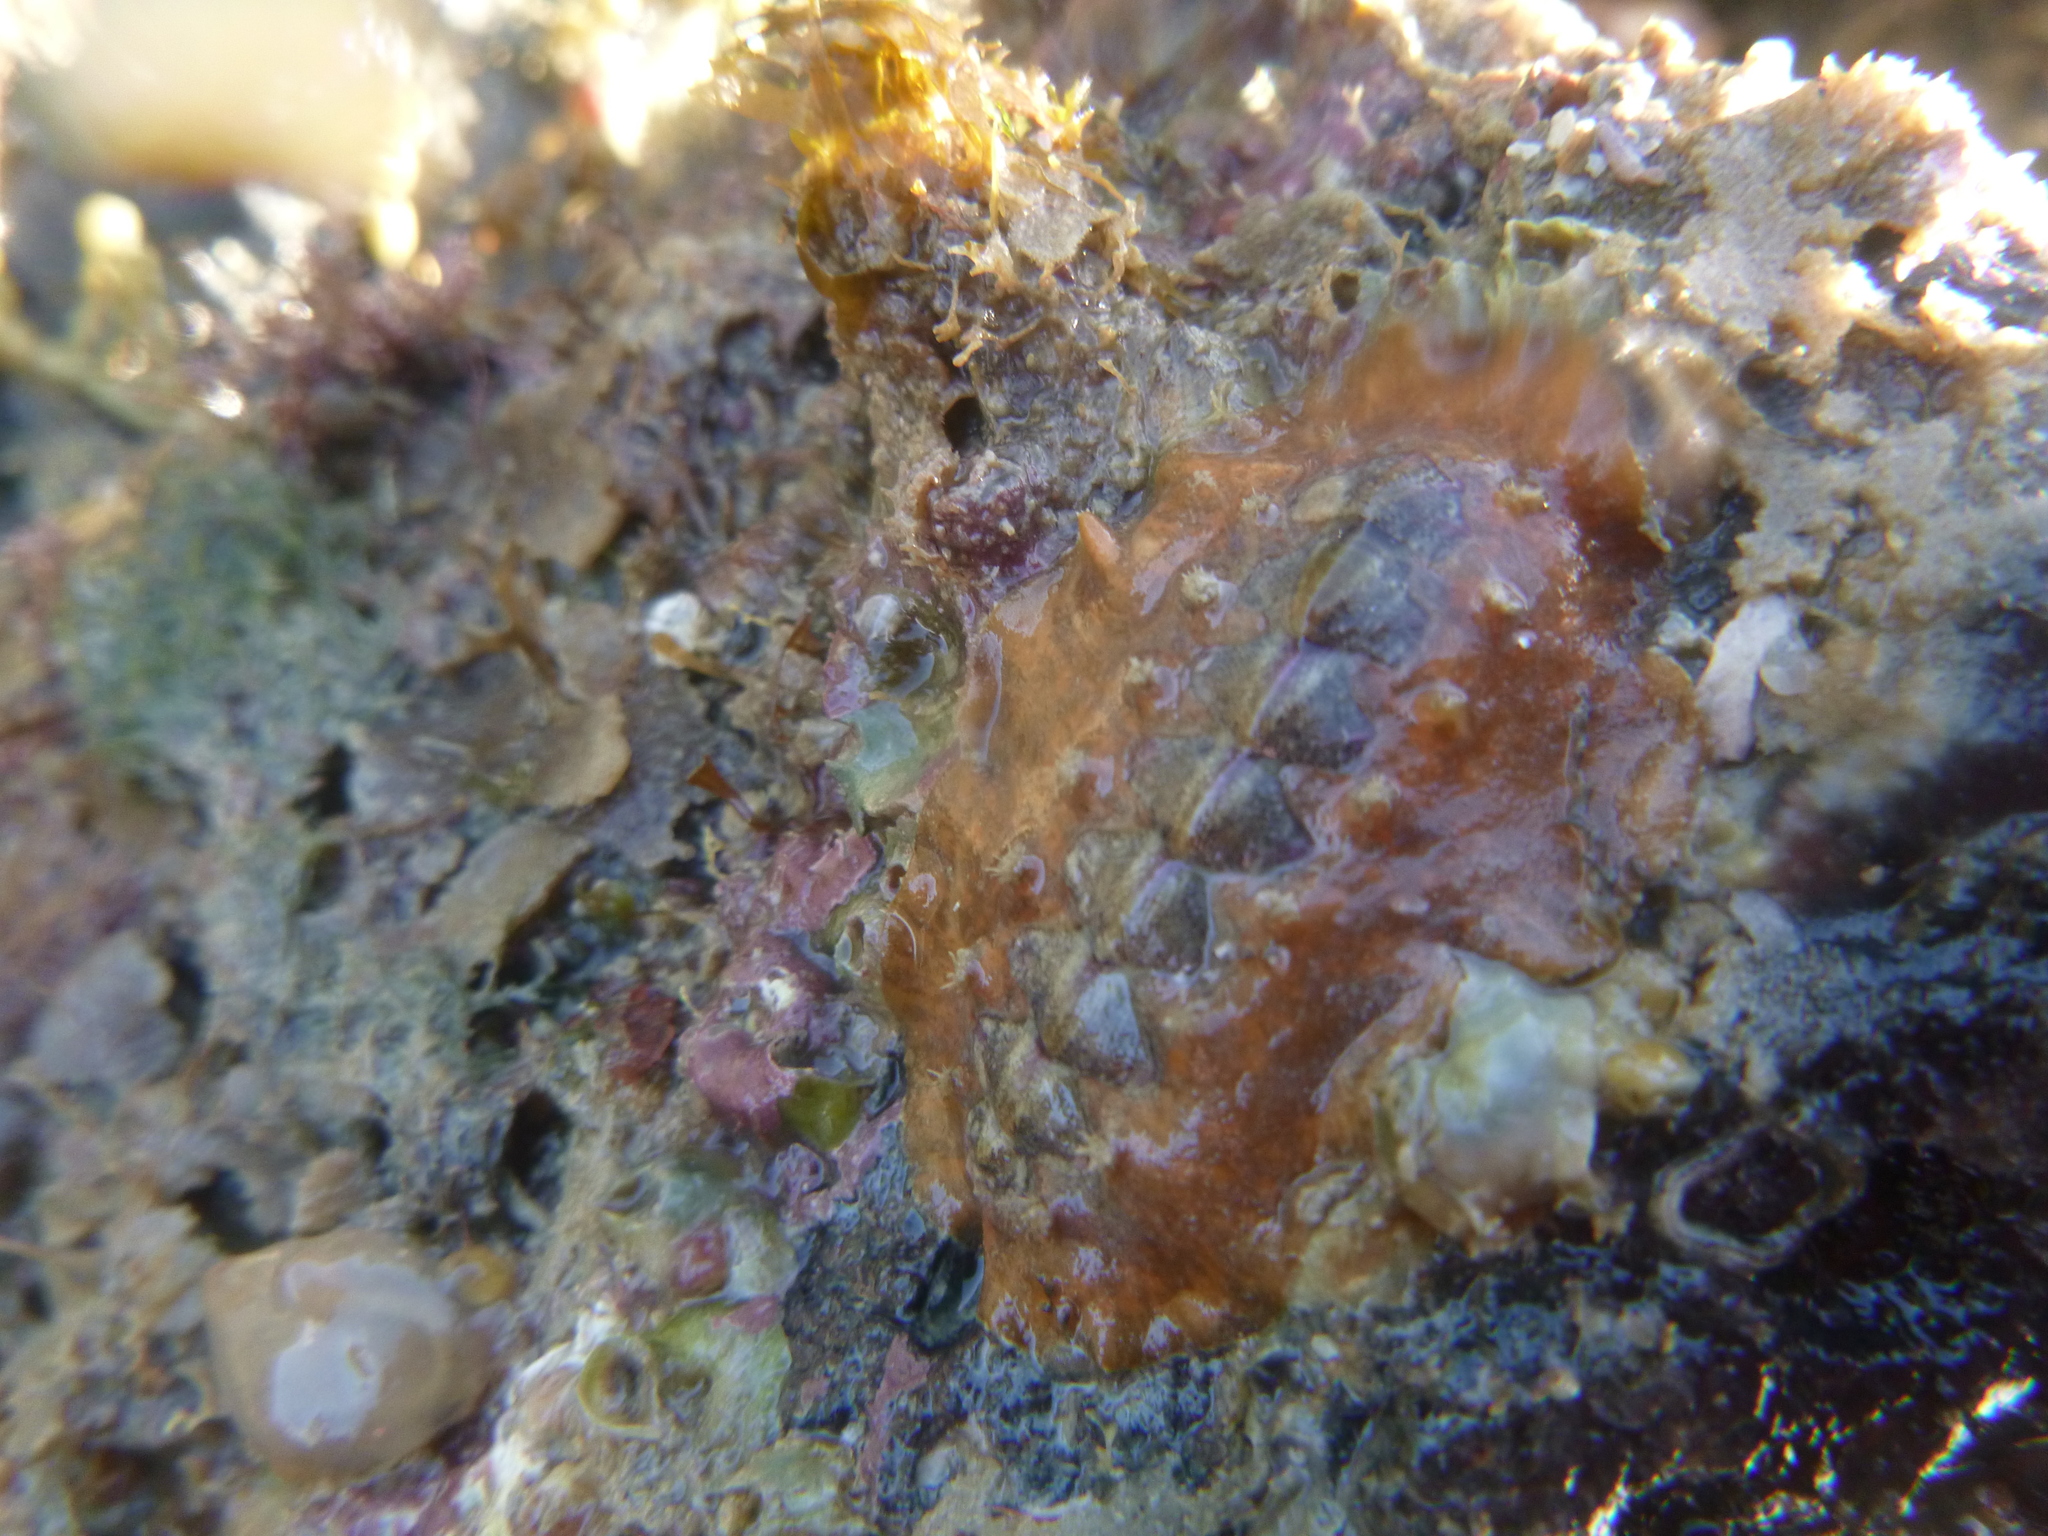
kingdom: Animalia
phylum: Mollusca
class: Polyplacophora
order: Chitonida
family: Acanthochitonidae
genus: Notoplax
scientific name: Notoplax violacea
